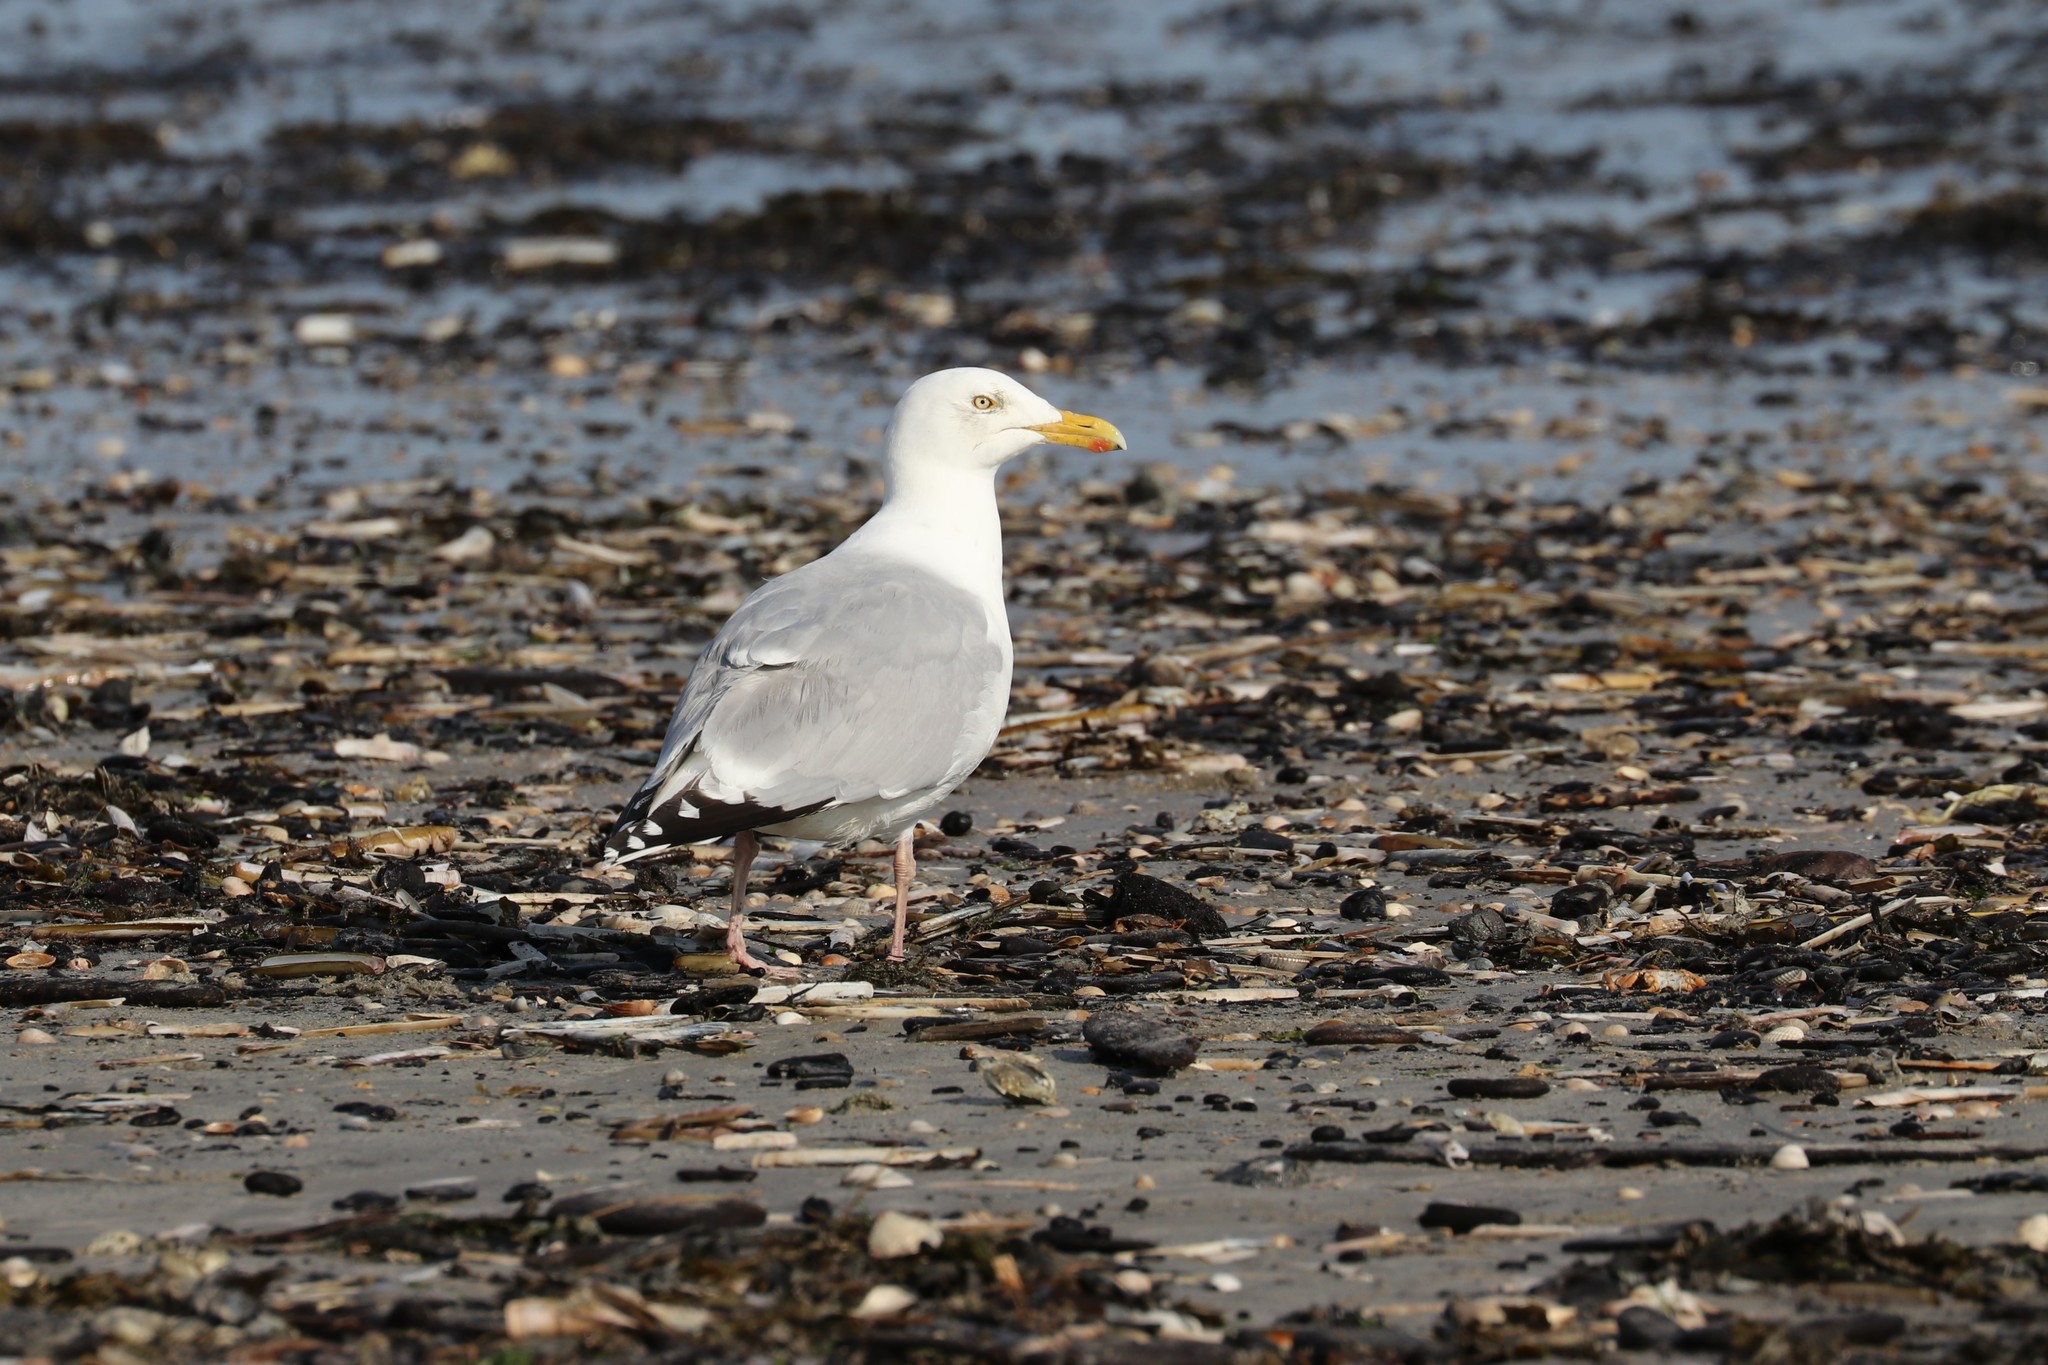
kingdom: Animalia
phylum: Chordata
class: Aves
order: Charadriiformes
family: Laridae
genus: Larus
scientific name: Larus argentatus
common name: Herring gull
